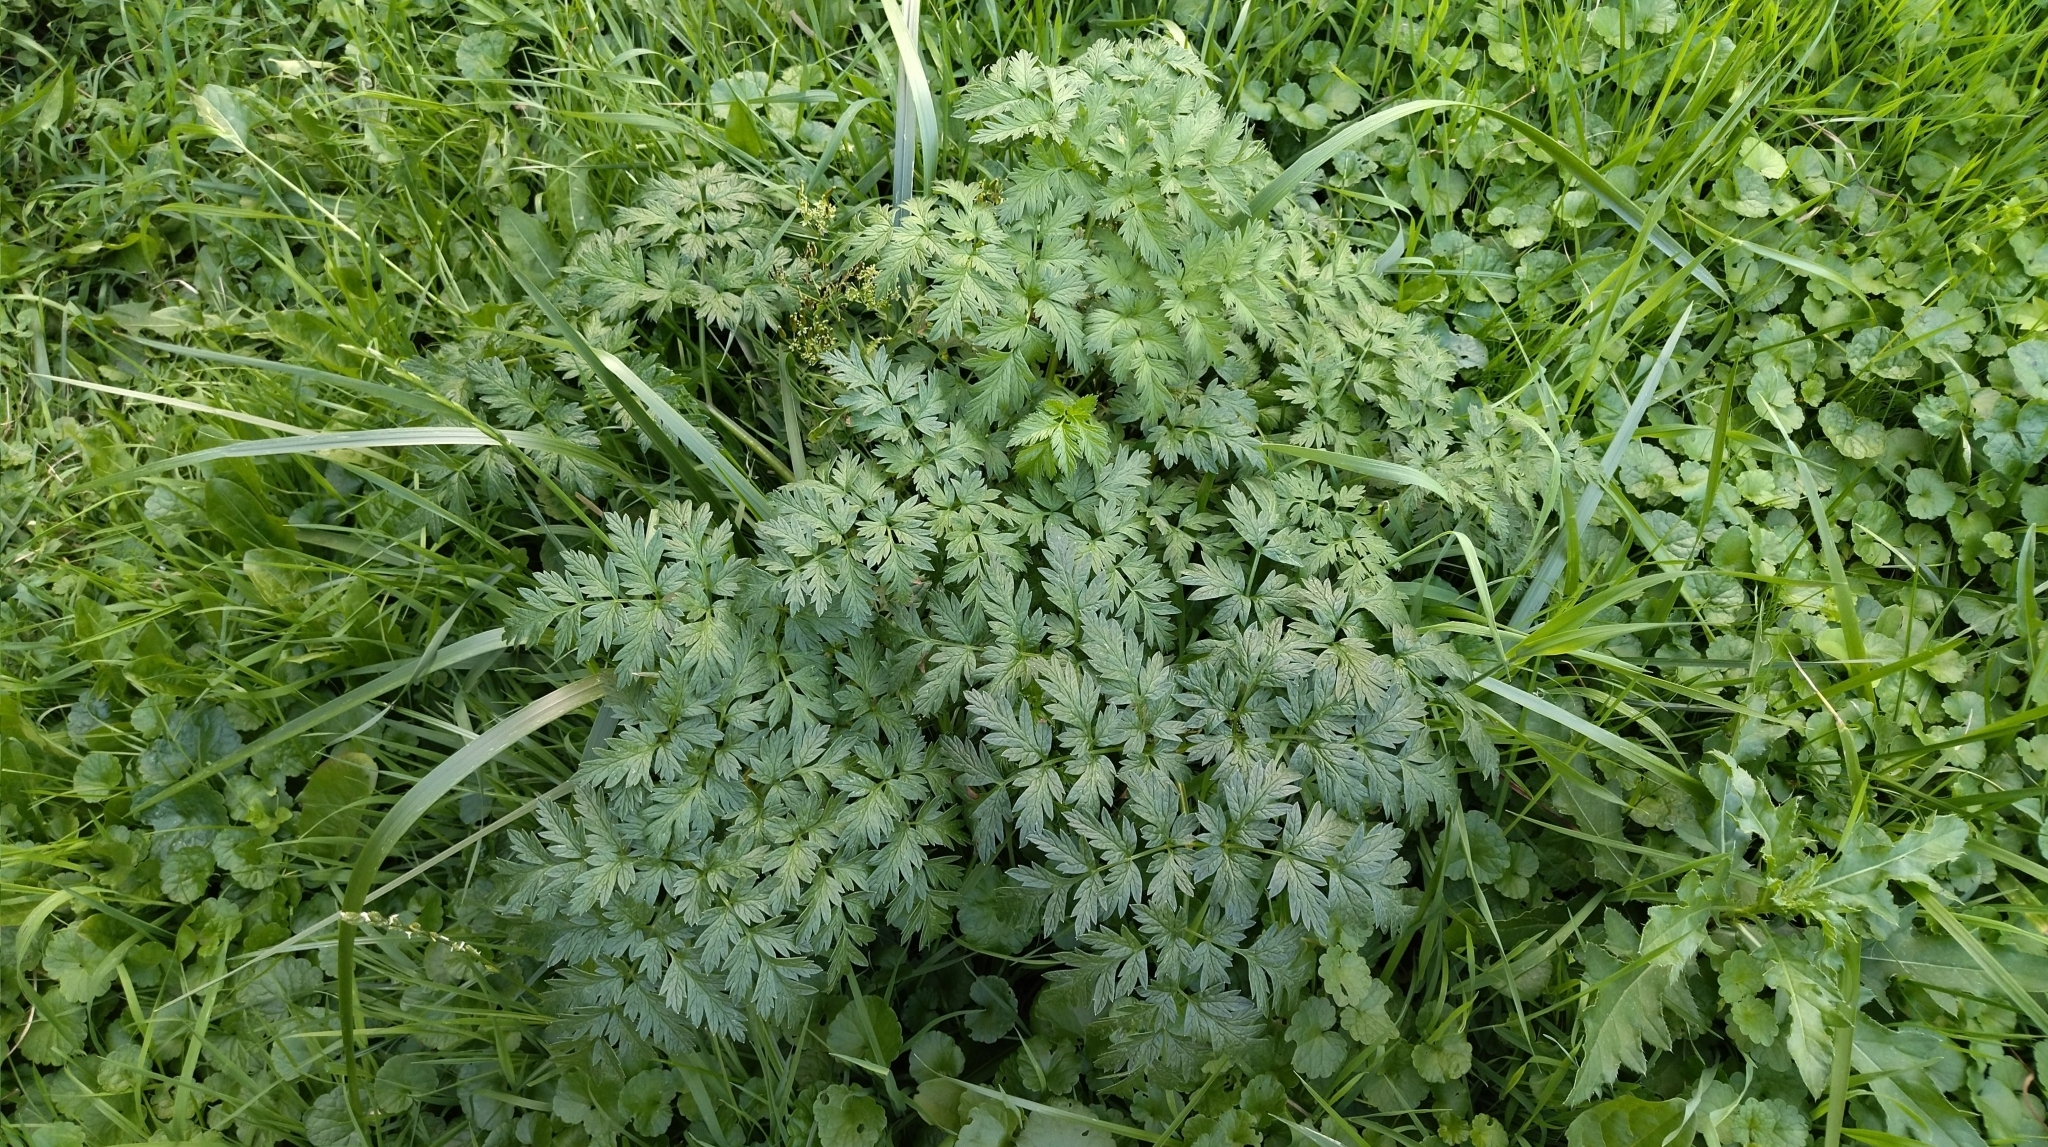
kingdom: Plantae
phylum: Tracheophyta
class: Magnoliopsida
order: Apiales
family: Apiaceae
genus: Anthriscus
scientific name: Anthriscus sylvestris
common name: Cow parsley
